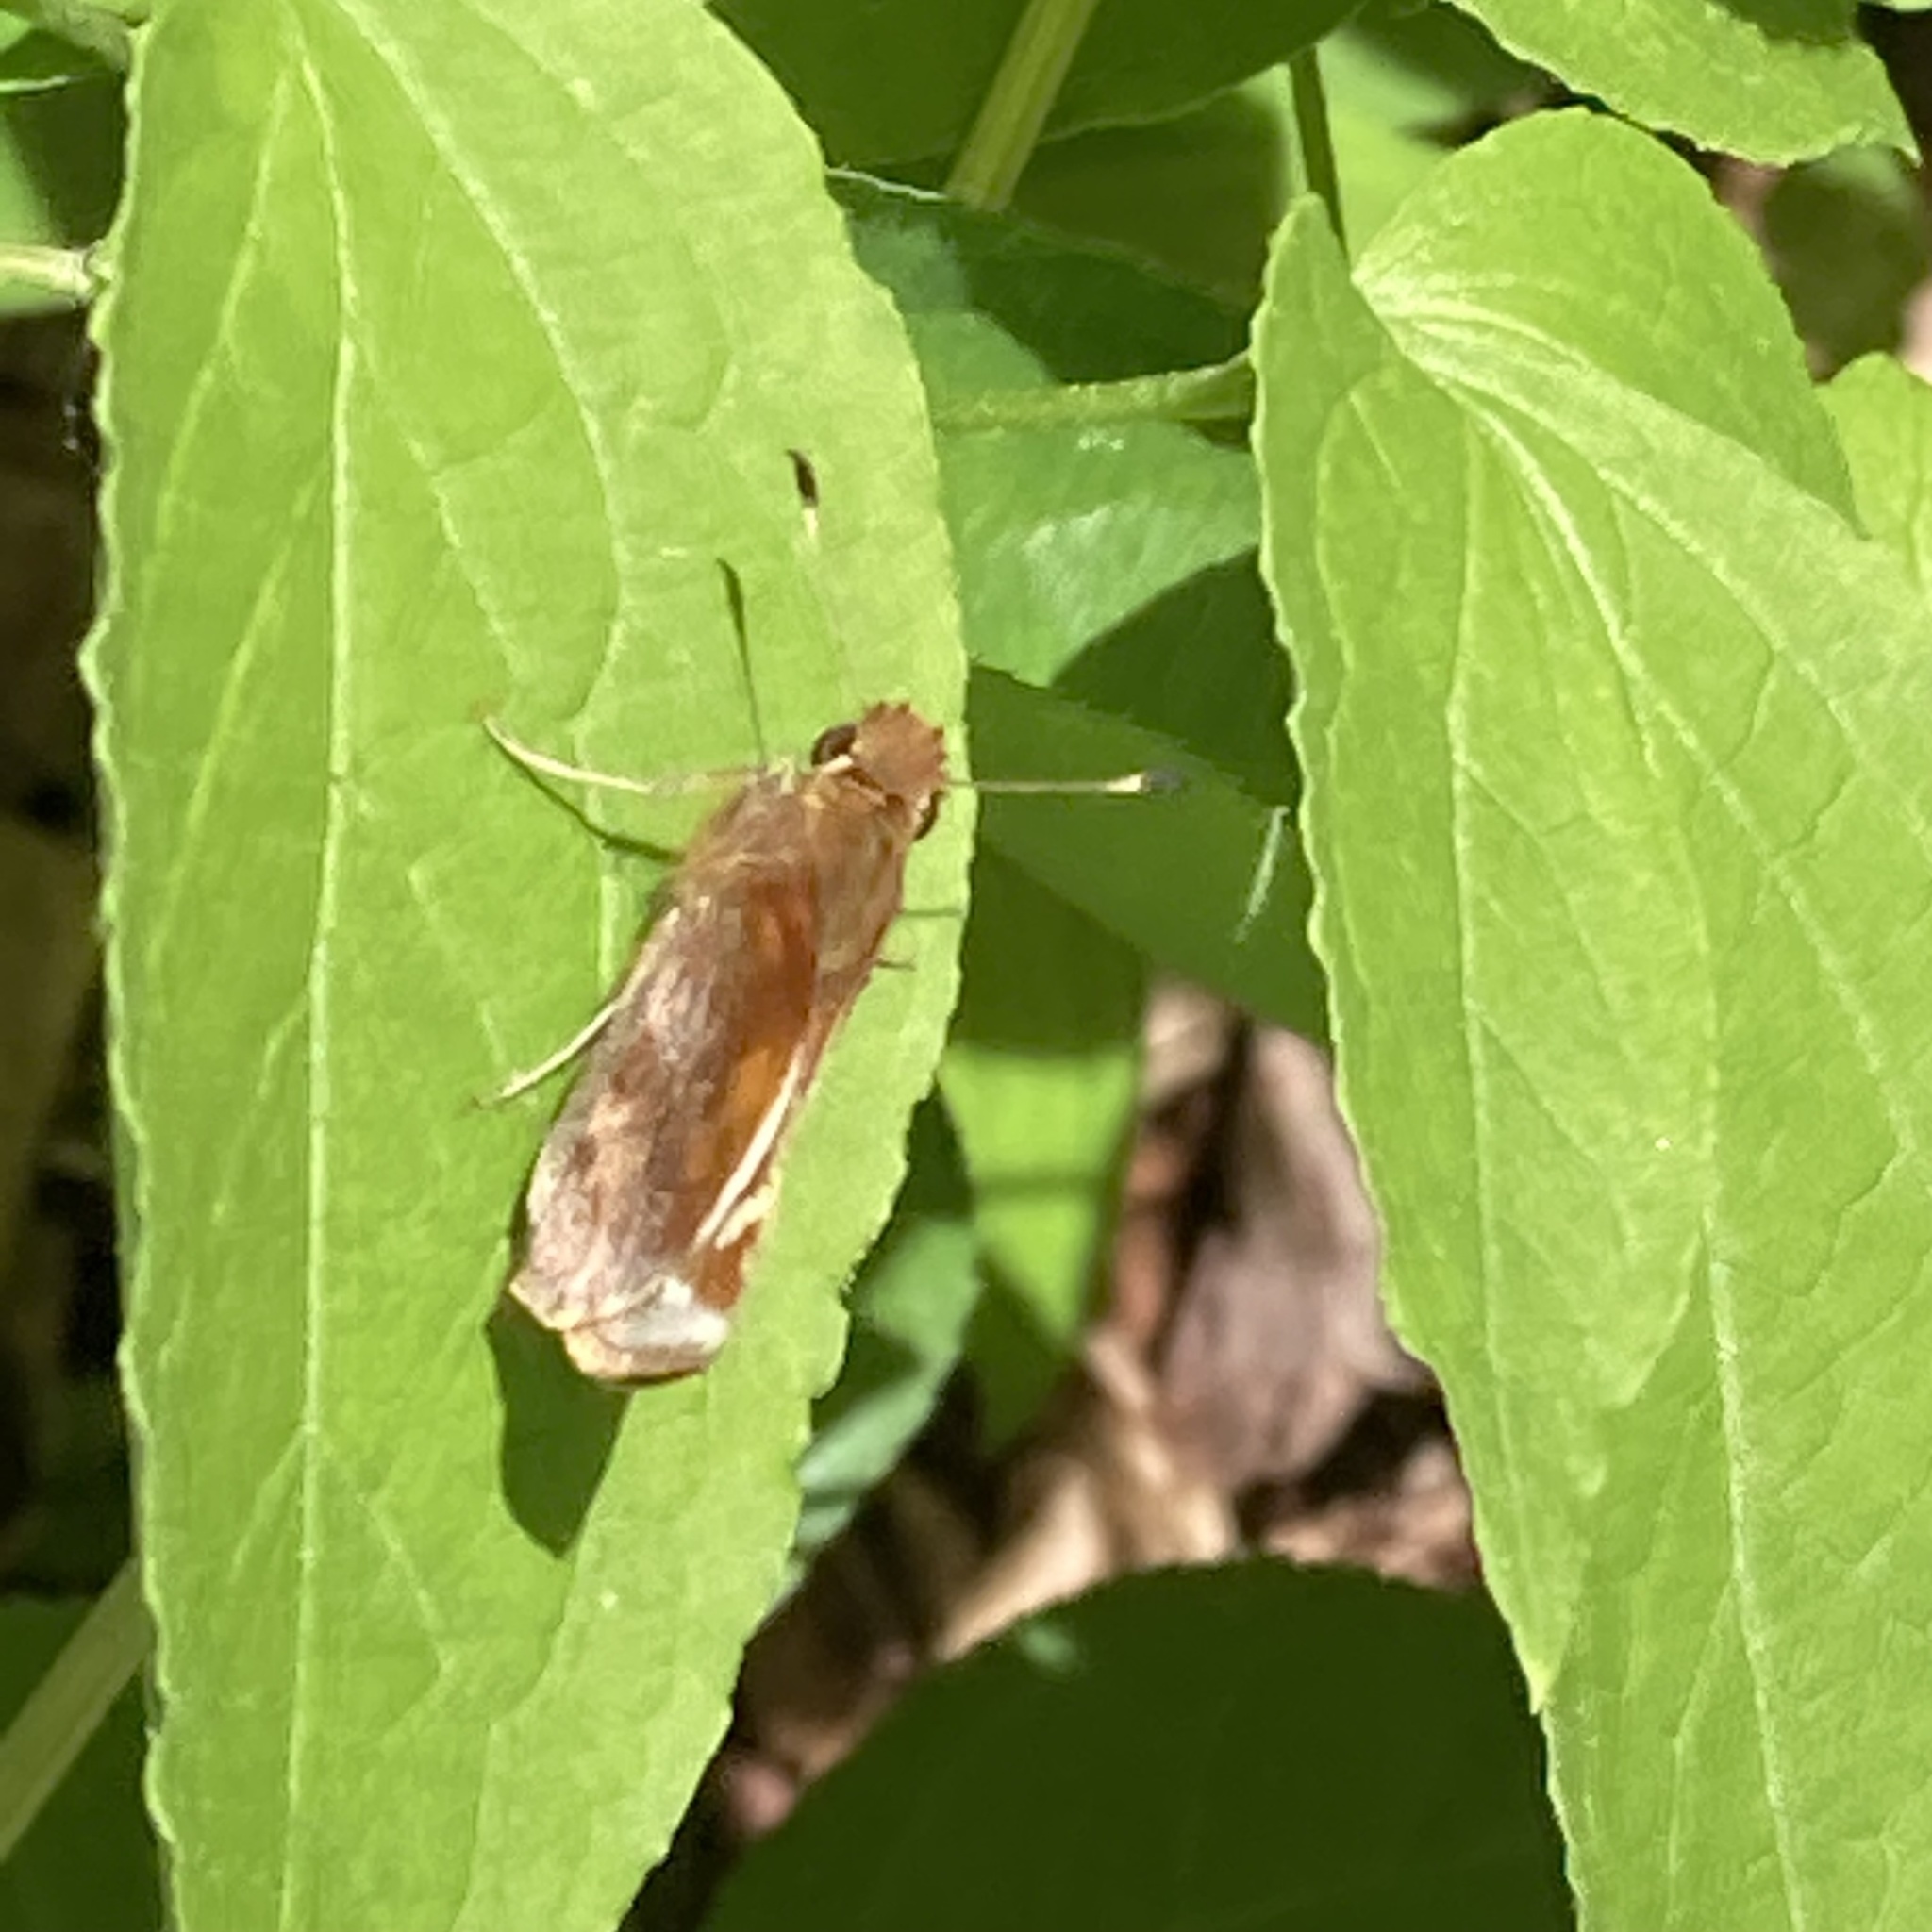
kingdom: Animalia
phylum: Arthropoda
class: Insecta
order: Lepidoptera
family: Hesperiidae
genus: Lon
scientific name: Lon zabulon
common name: Zabulon skipper
